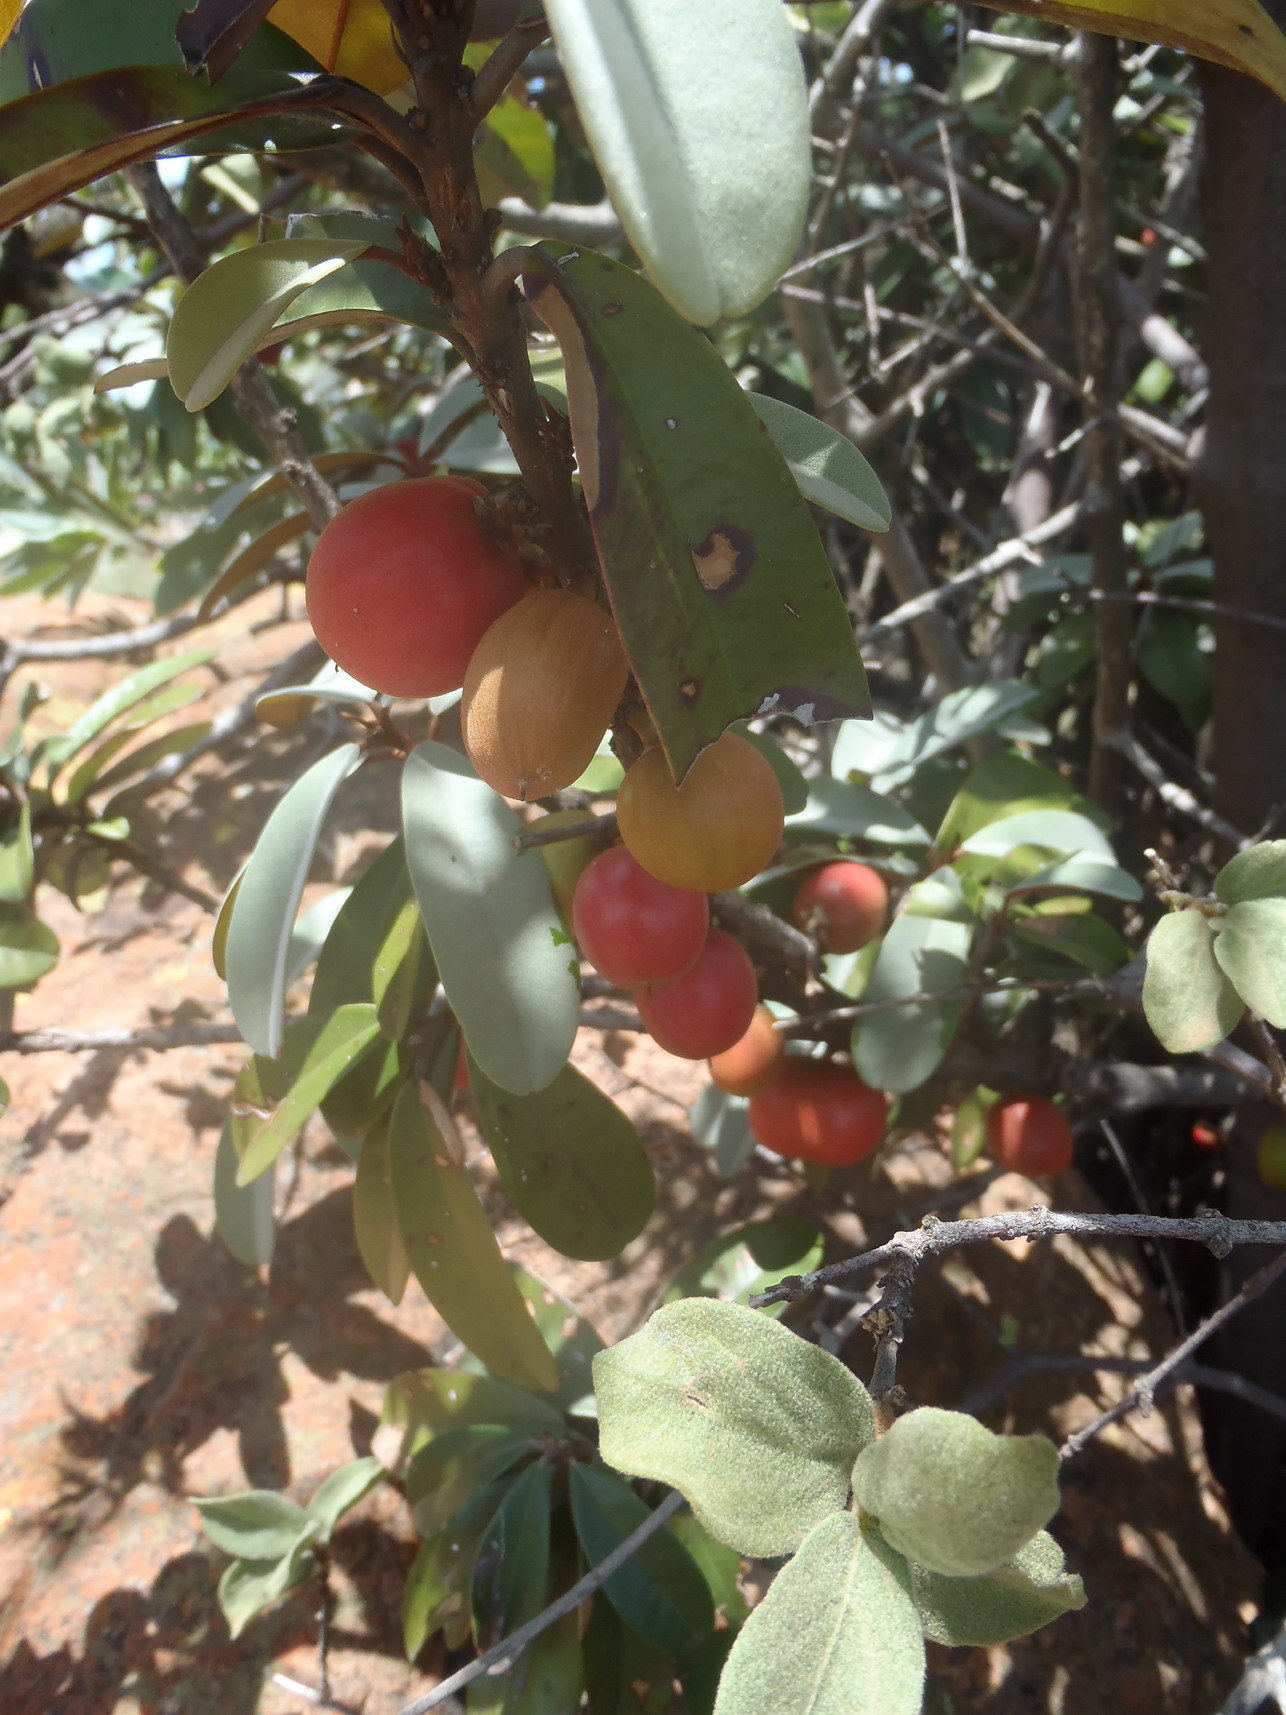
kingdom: Plantae
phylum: Tracheophyta
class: Magnoliopsida
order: Ericales
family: Sapotaceae
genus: Englerophytum
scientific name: Englerophytum magalismontanum
